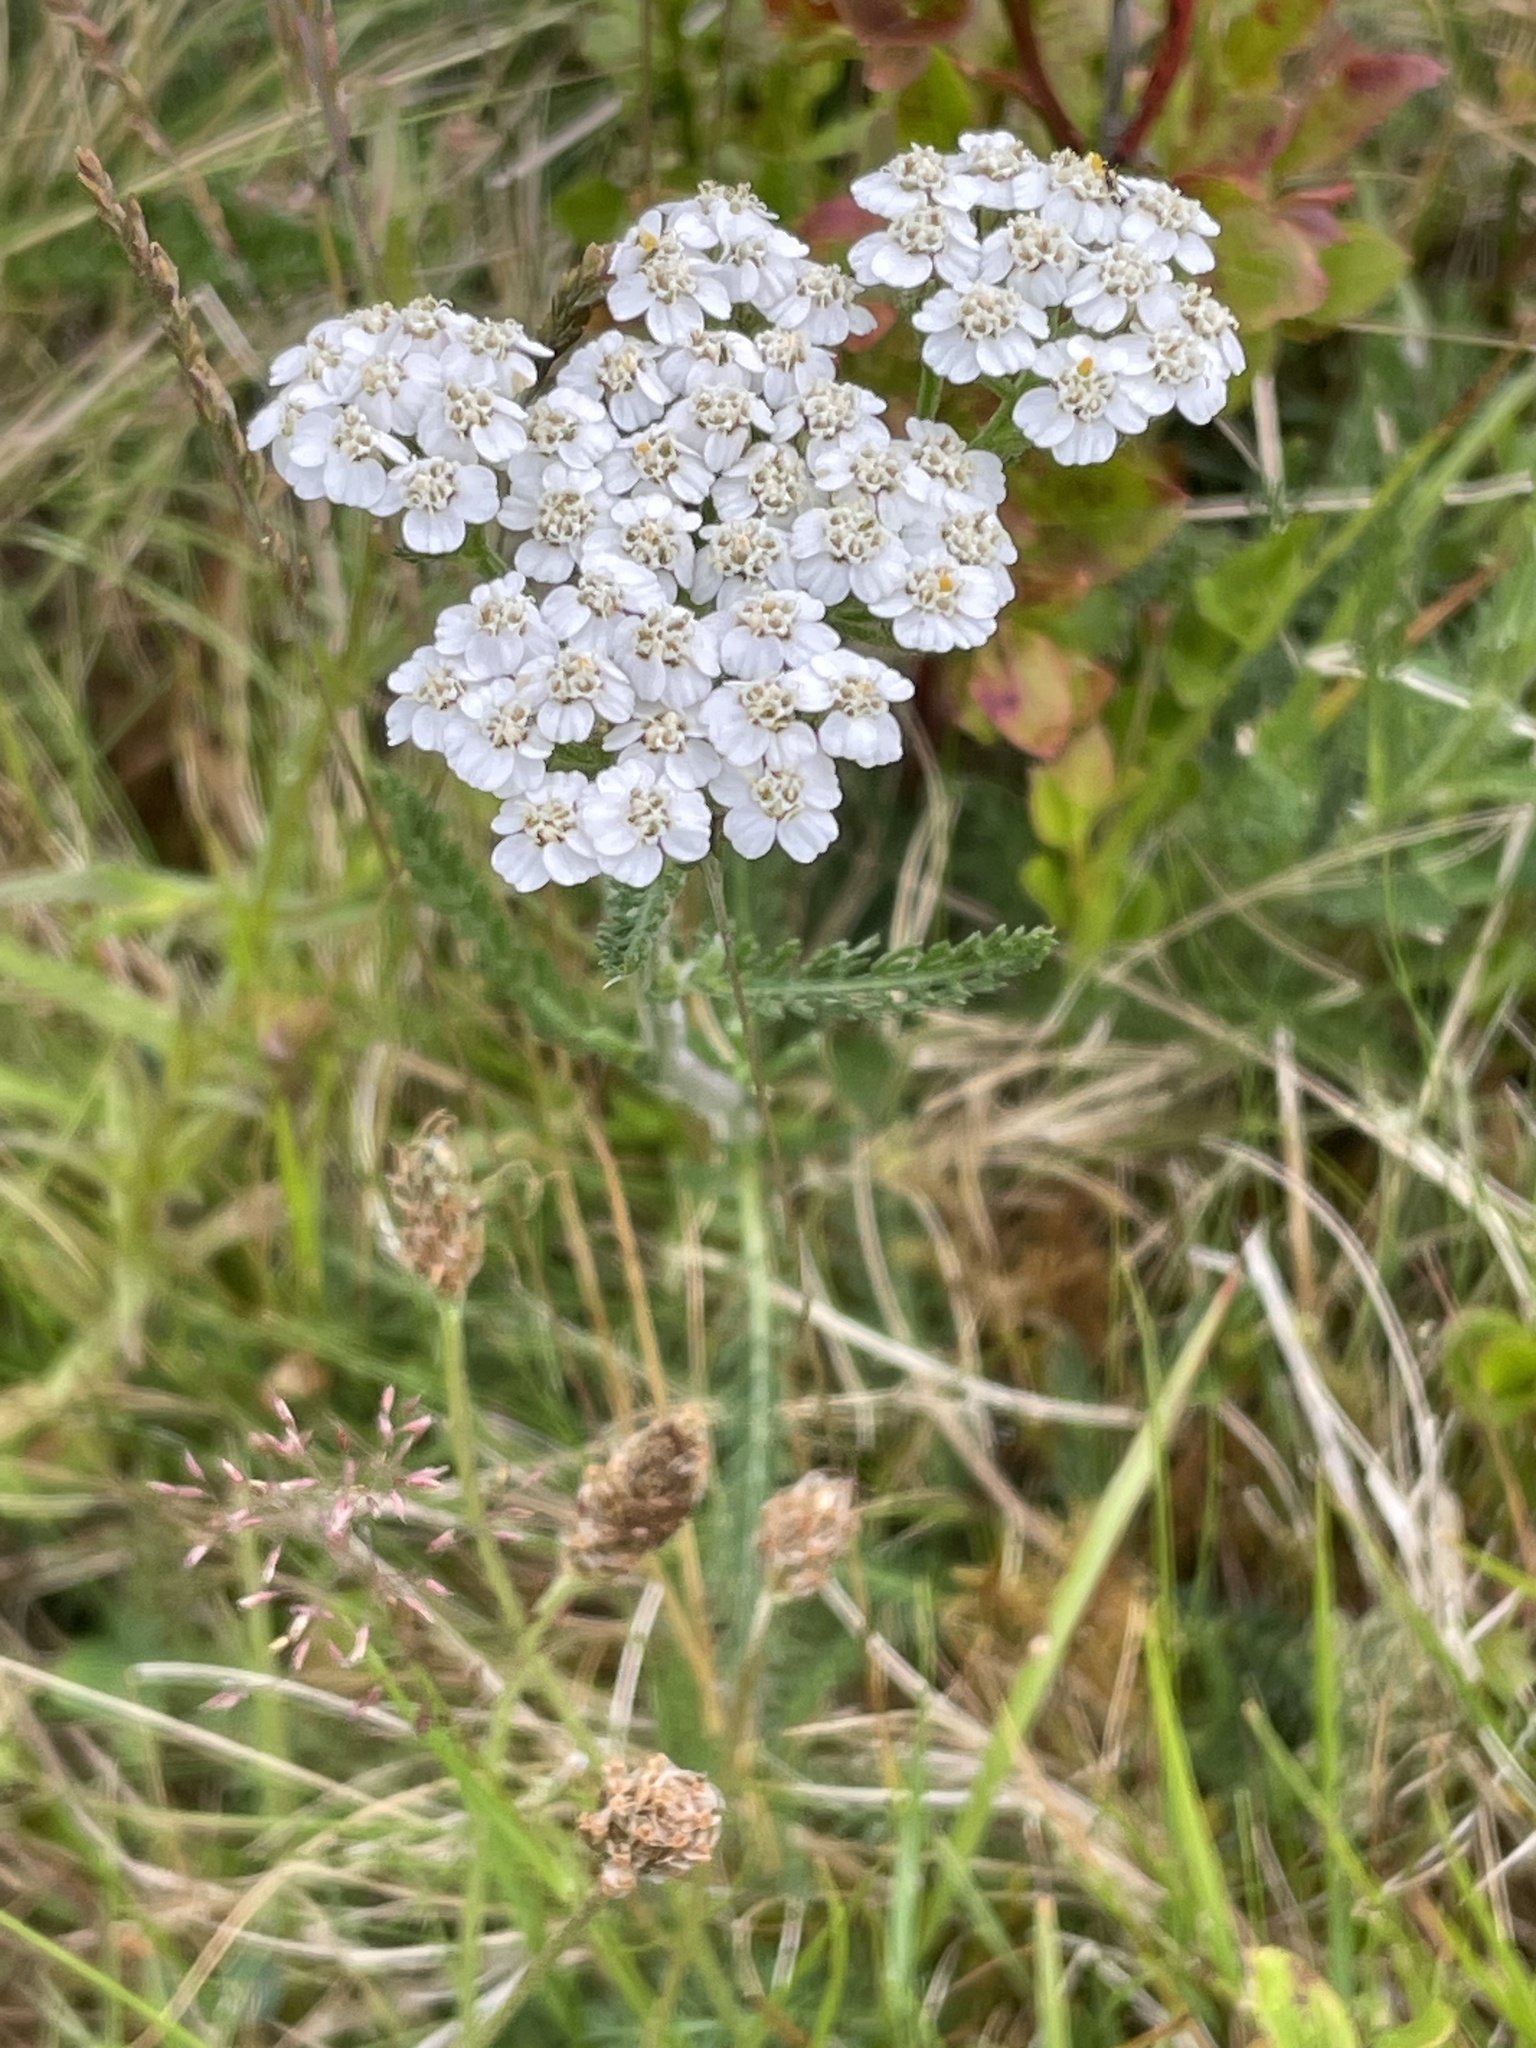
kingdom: Plantae
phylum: Tracheophyta
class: Magnoliopsida
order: Asterales
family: Asteraceae
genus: Achillea
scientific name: Achillea millefolium
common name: Yarrow
